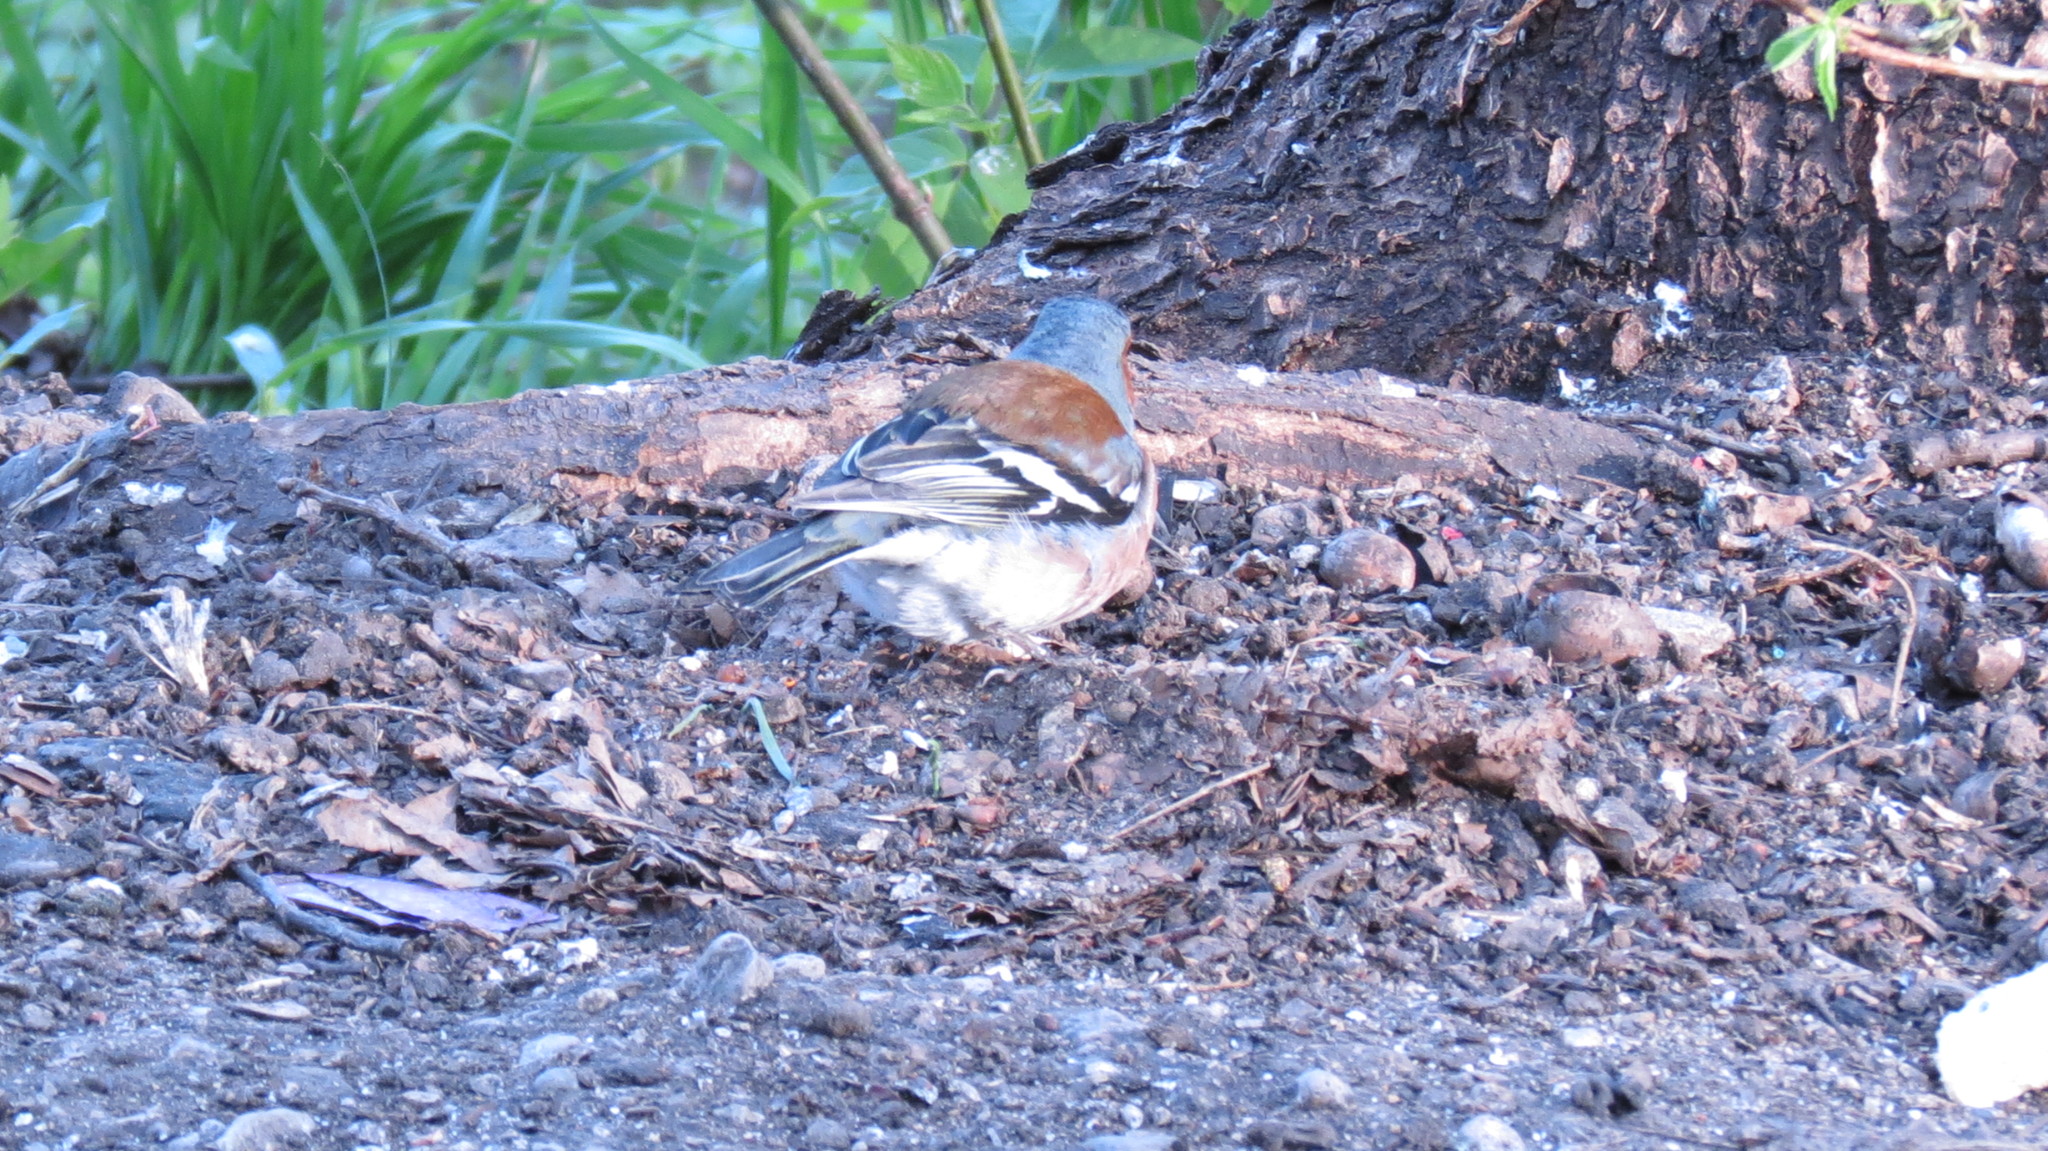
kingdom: Animalia
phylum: Chordata
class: Aves
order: Passeriformes
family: Fringillidae
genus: Fringilla
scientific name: Fringilla coelebs
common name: Common chaffinch
